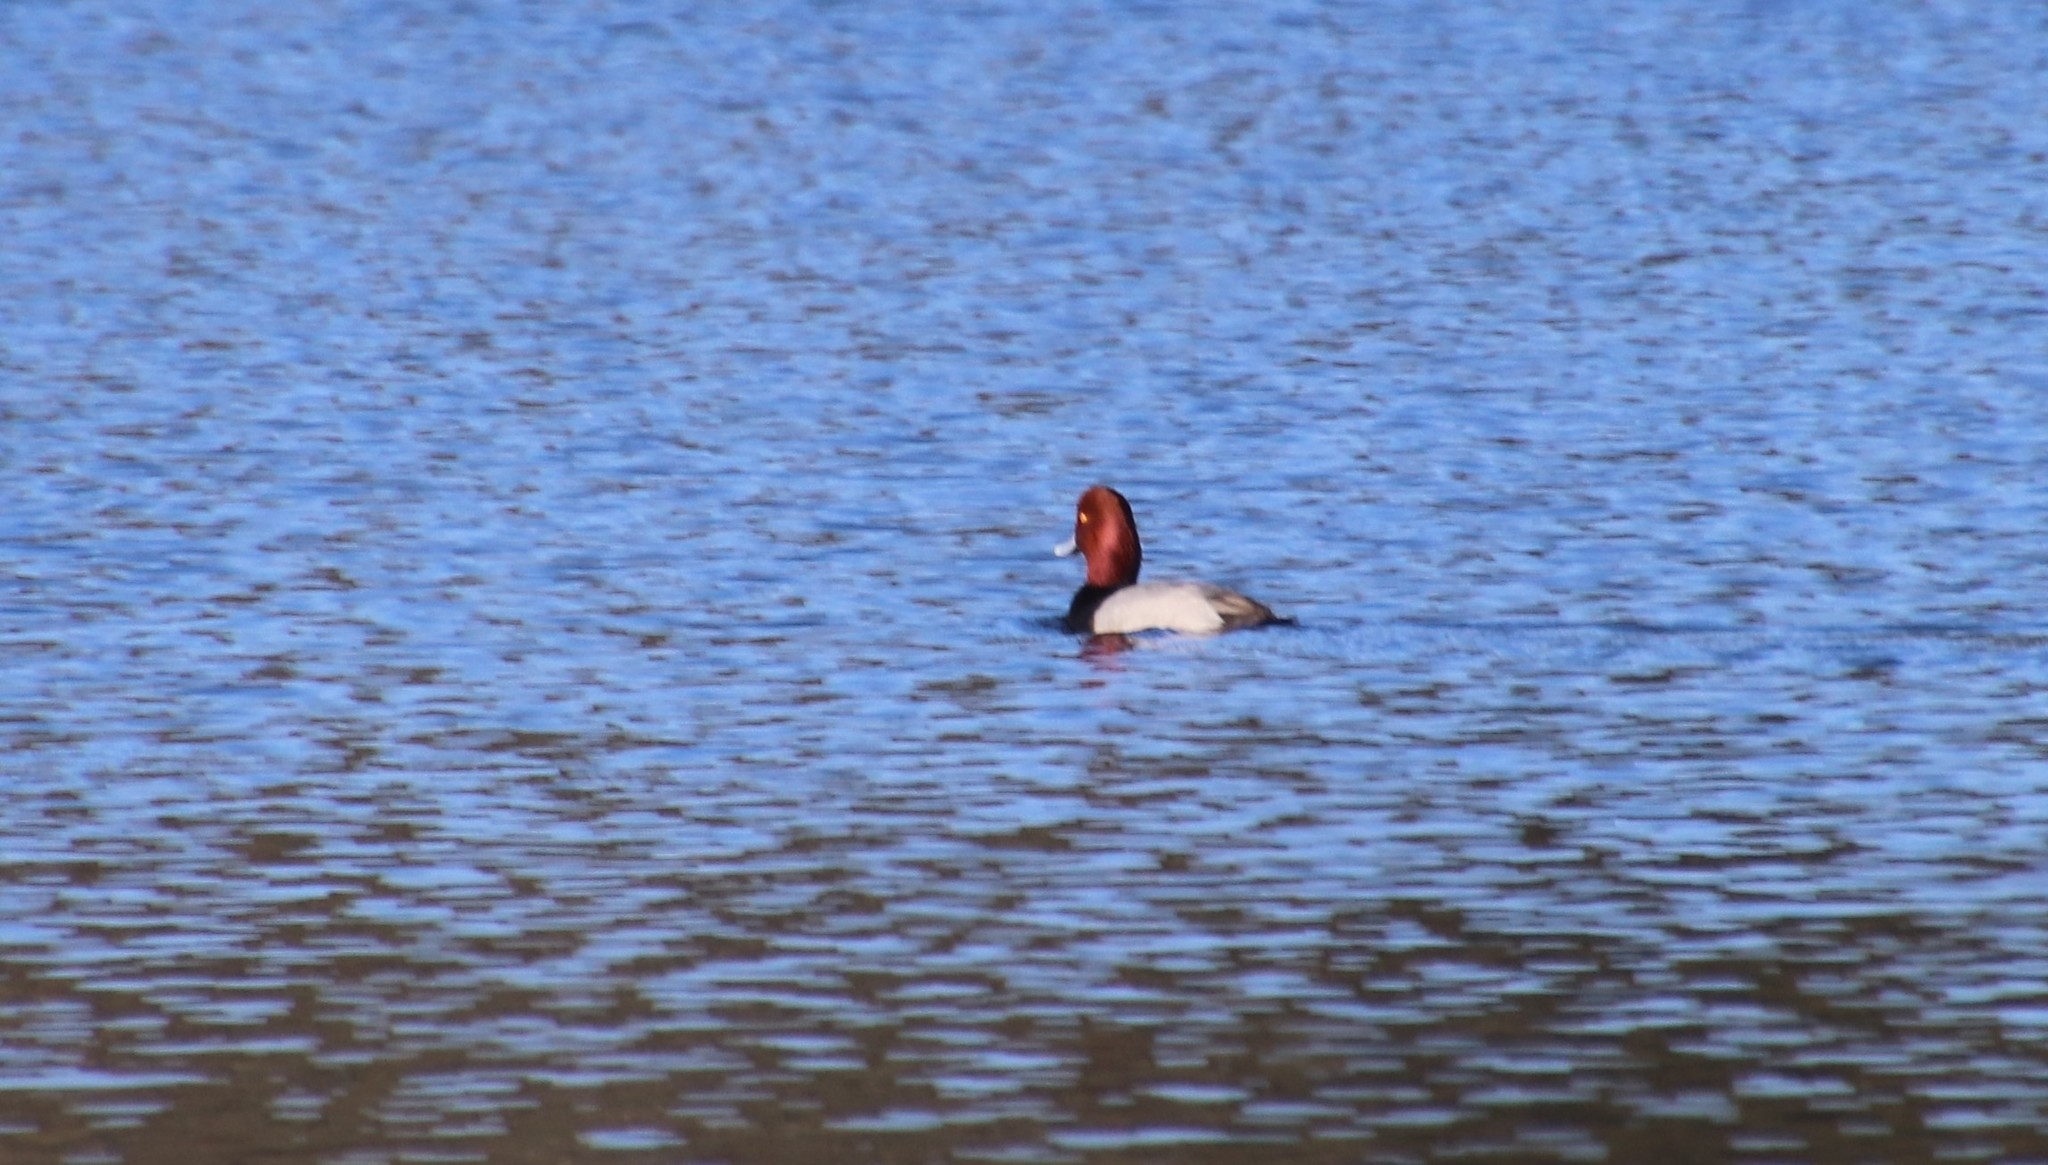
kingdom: Animalia
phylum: Chordata
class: Aves
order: Anseriformes
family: Anatidae
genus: Aythya
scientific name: Aythya americana
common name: Redhead
